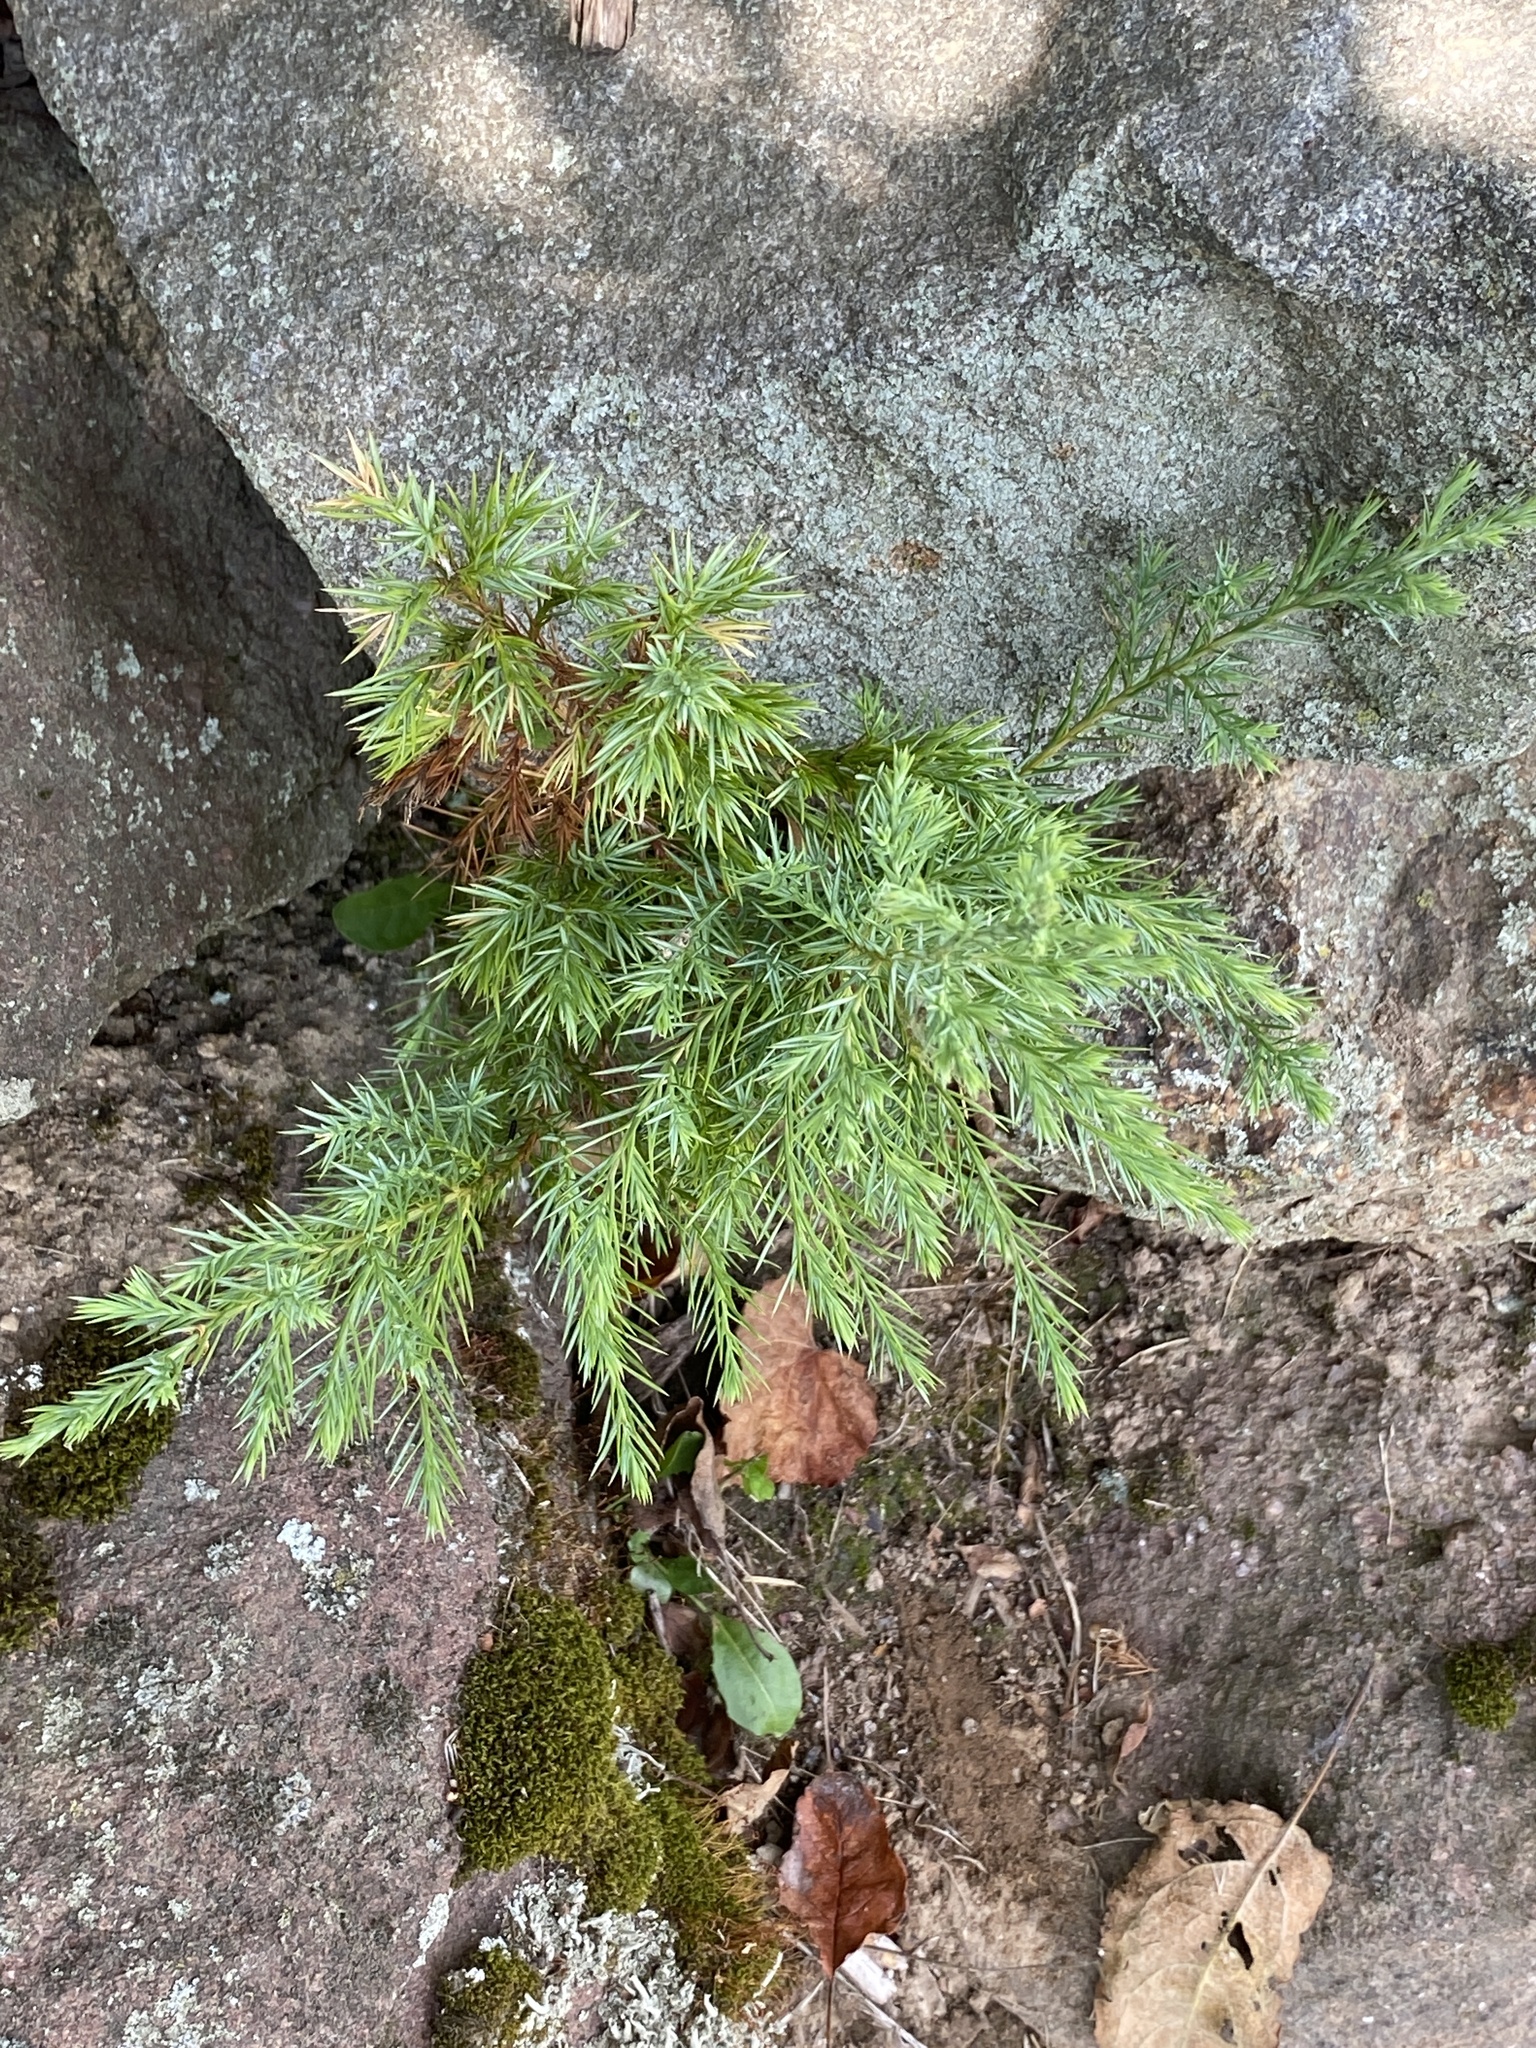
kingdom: Plantae
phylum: Tracheophyta
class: Pinopsida
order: Pinales
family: Cupressaceae
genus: Juniperus
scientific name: Juniperus virginiana
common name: Red juniper
